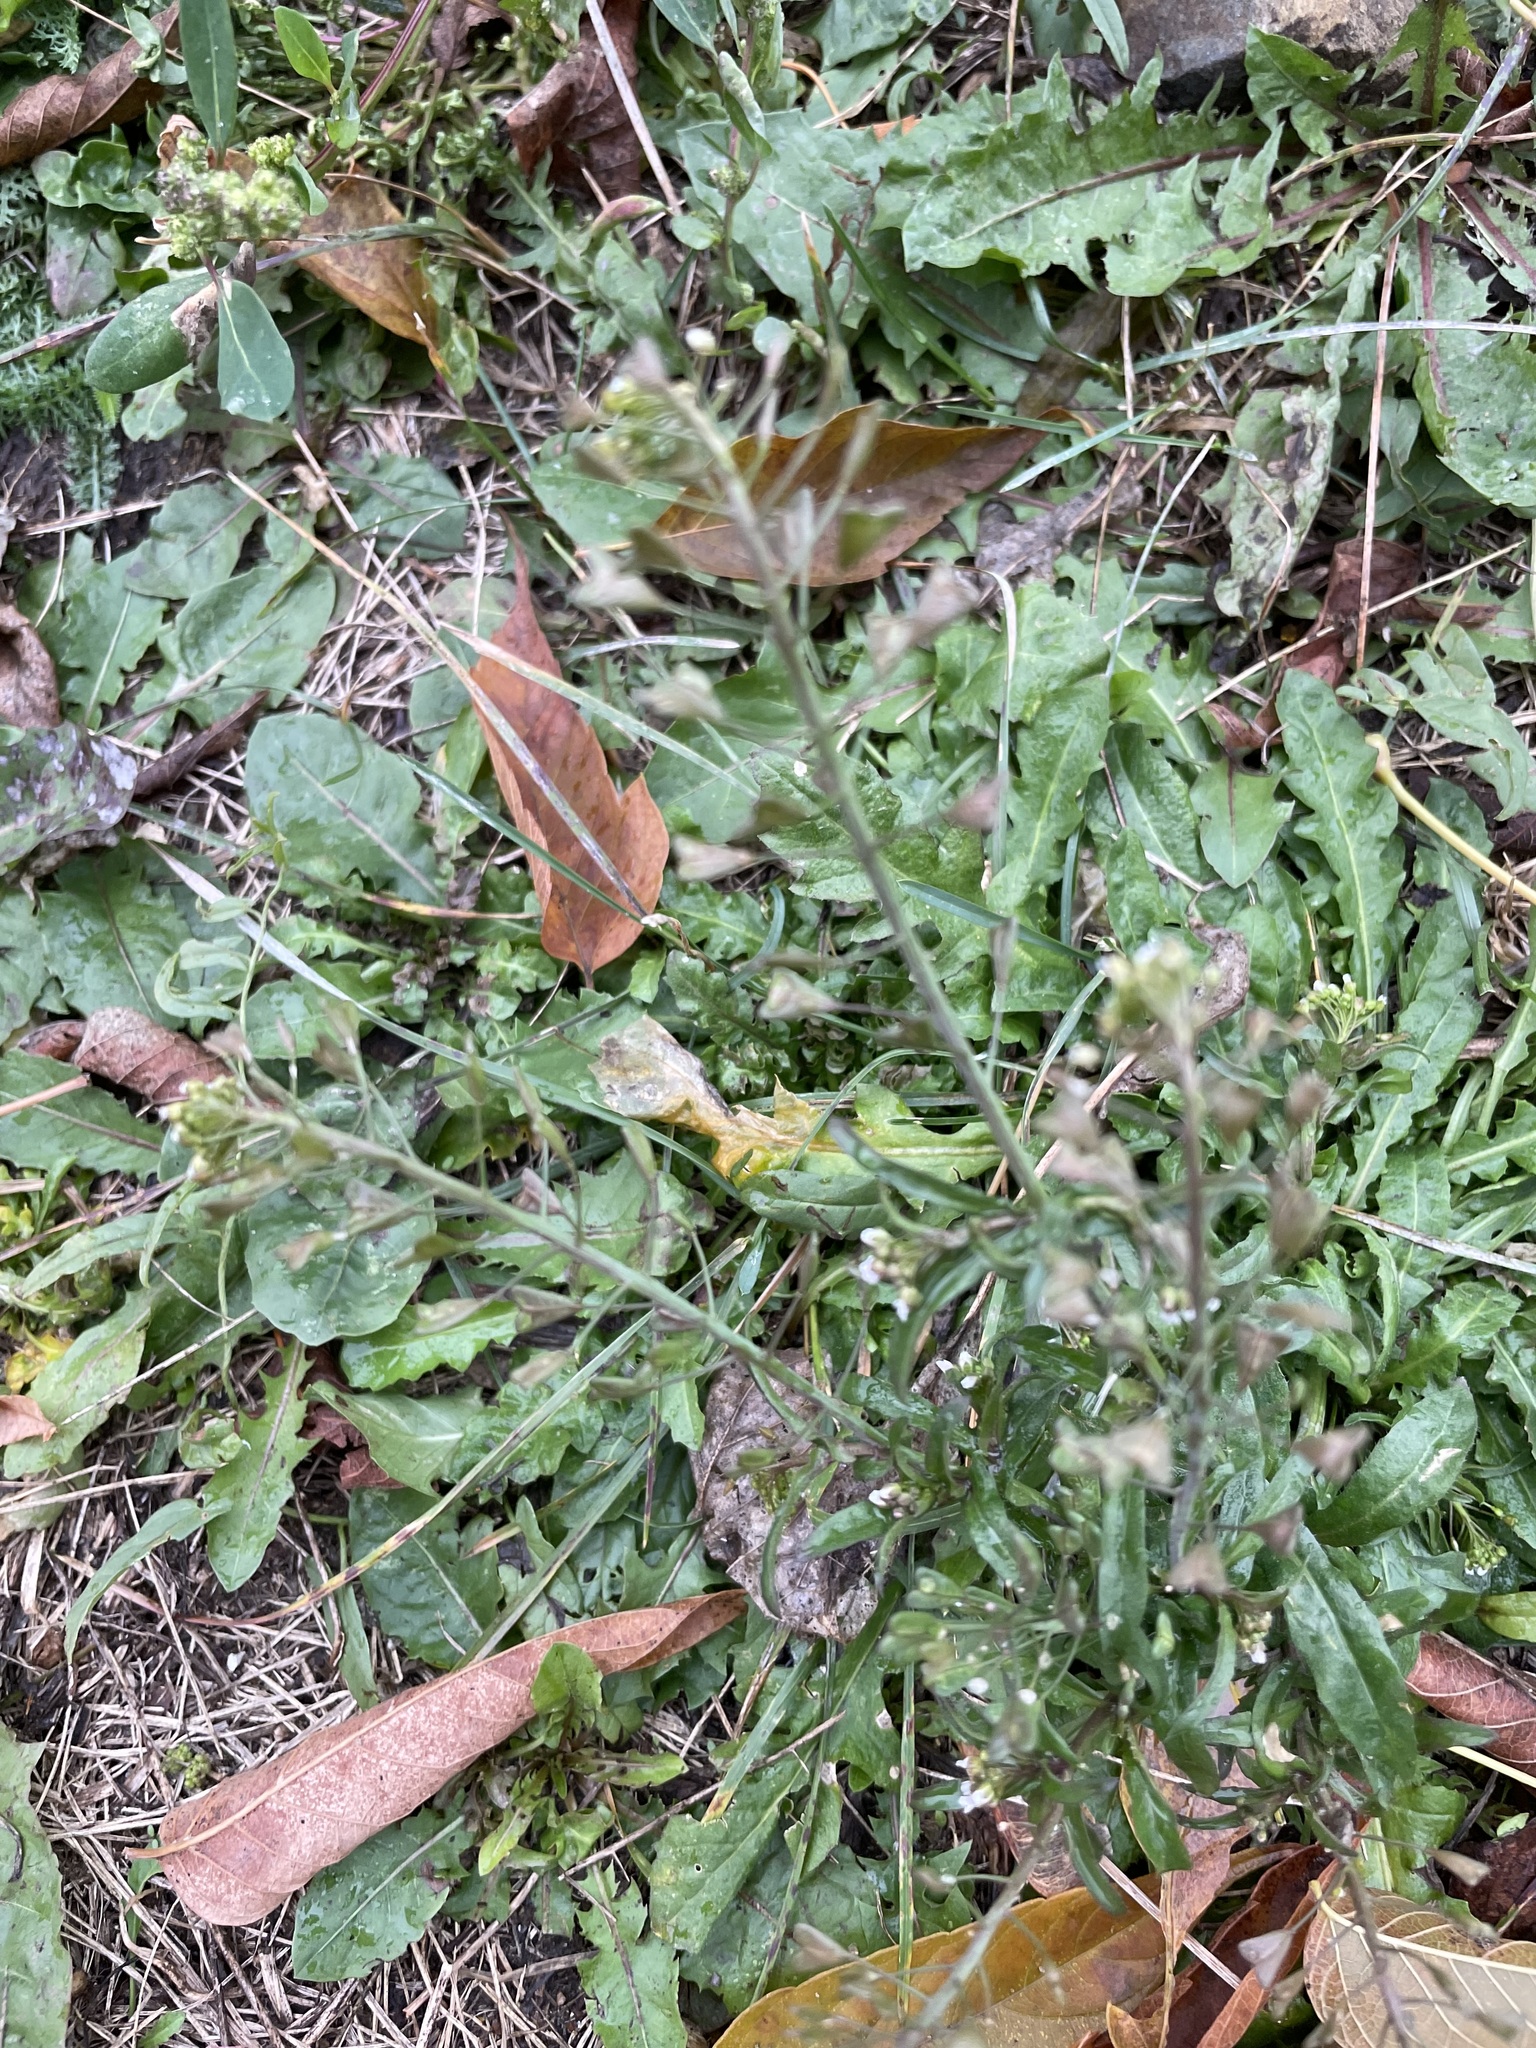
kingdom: Plantae
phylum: Tracheophyta
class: Magnoliopsida
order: Brassicales
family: Brassicaceae
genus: Capsella
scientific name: Capsella bursa-pastoris
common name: Shepherd's purse
